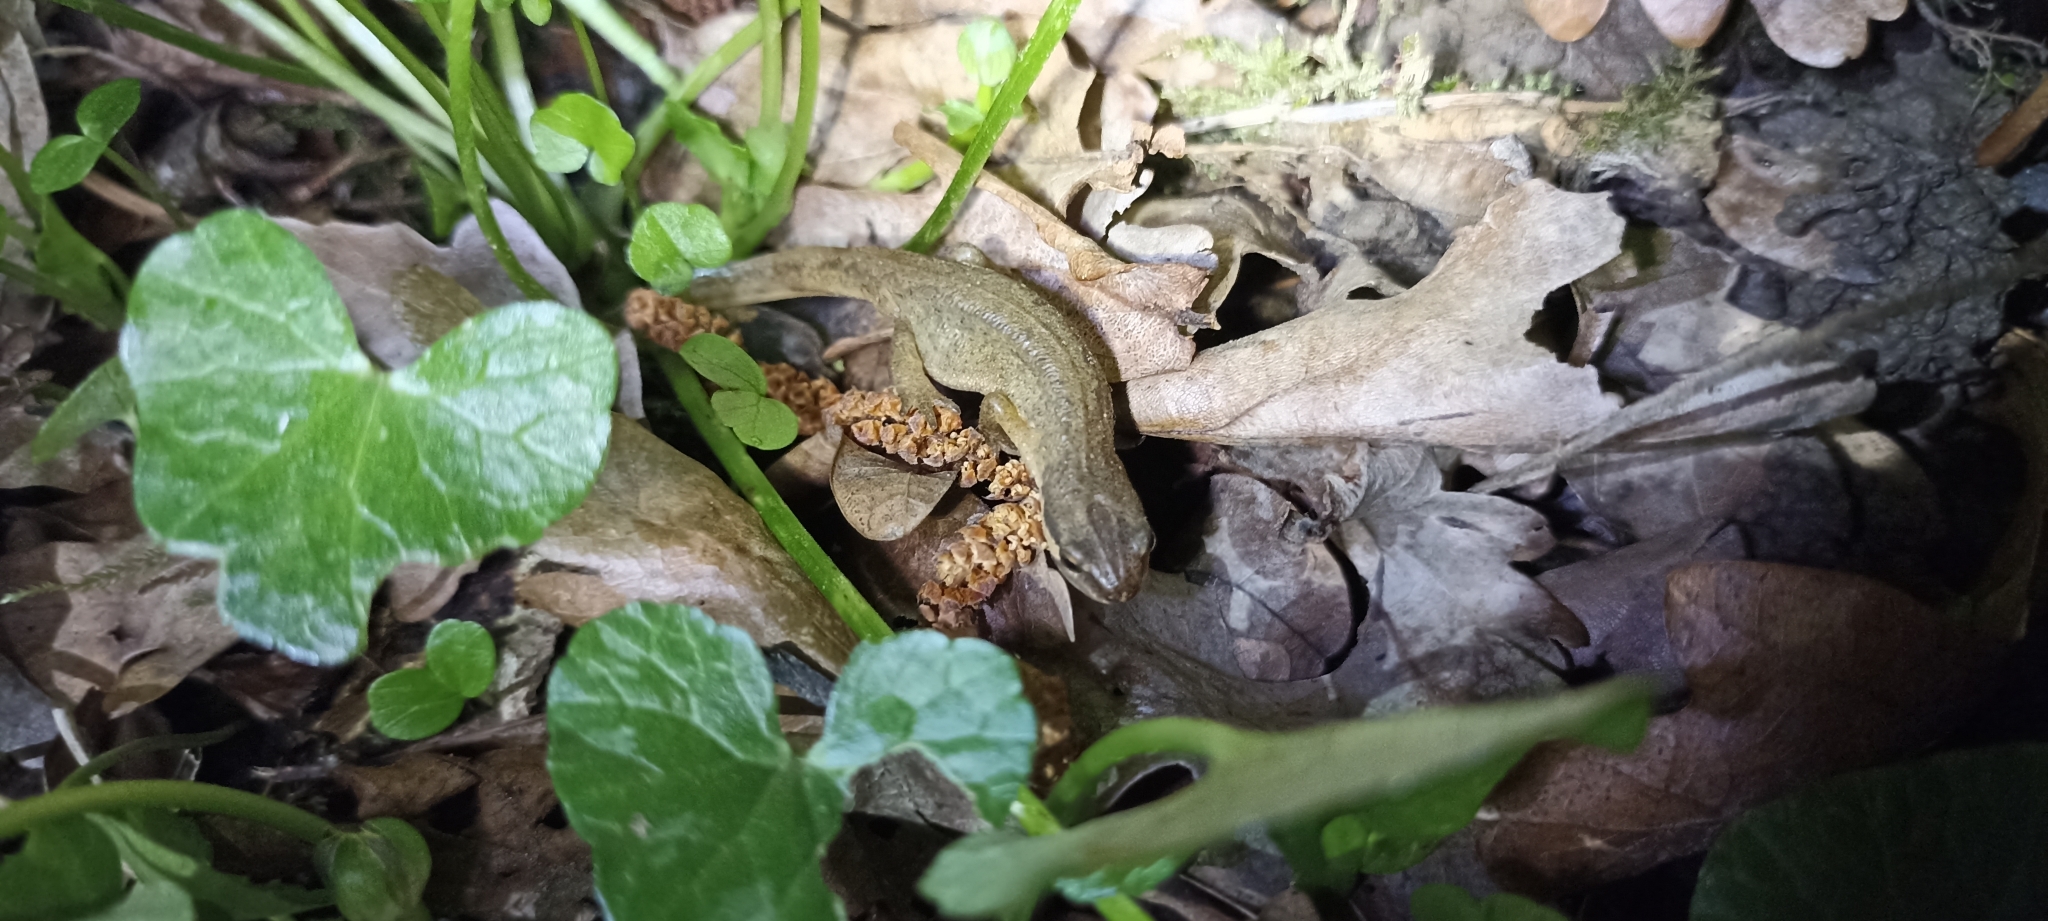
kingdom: Animalia
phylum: Chordata
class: Amphibia
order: Caudata
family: Salamandridae
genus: Lissotriton
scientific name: Lissotriton helveticus
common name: Palmate newt
